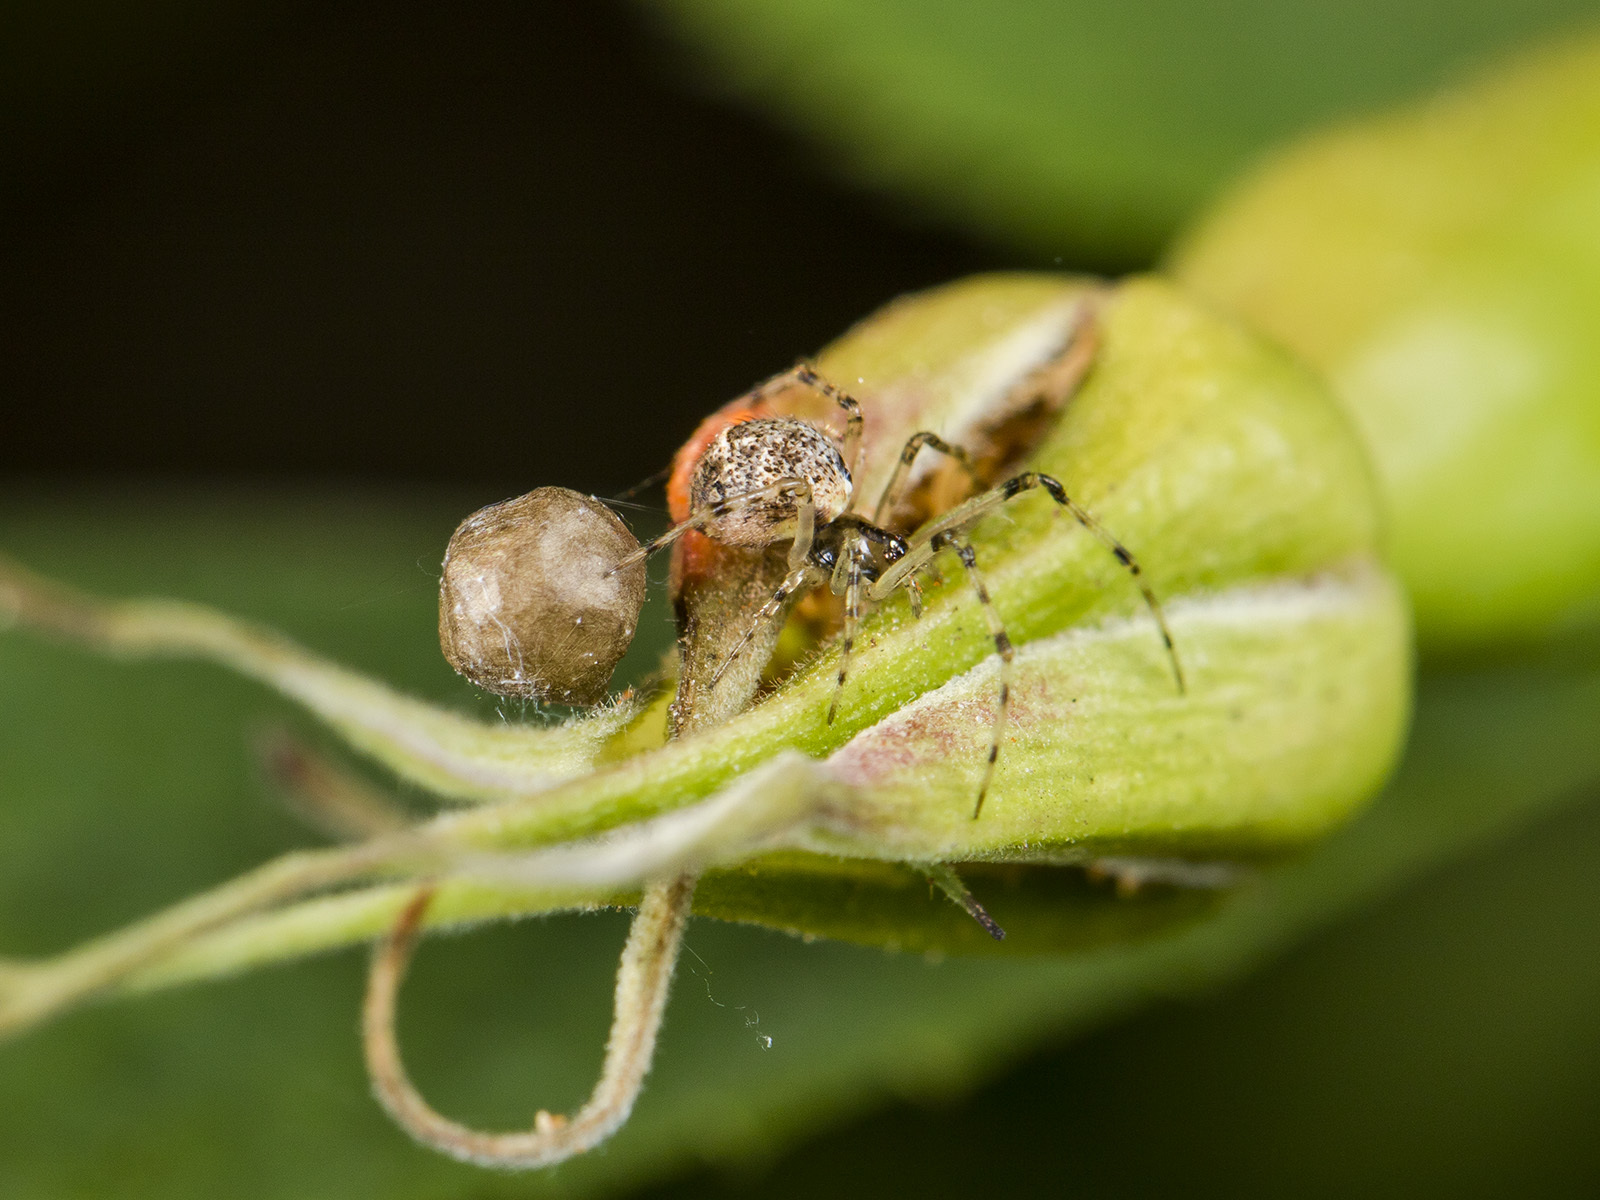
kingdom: Animalia
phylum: Arthropoda
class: Arachnida
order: Araneae
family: Linyphiidae
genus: Poeciloneta
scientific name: Poeciloneta variegata
